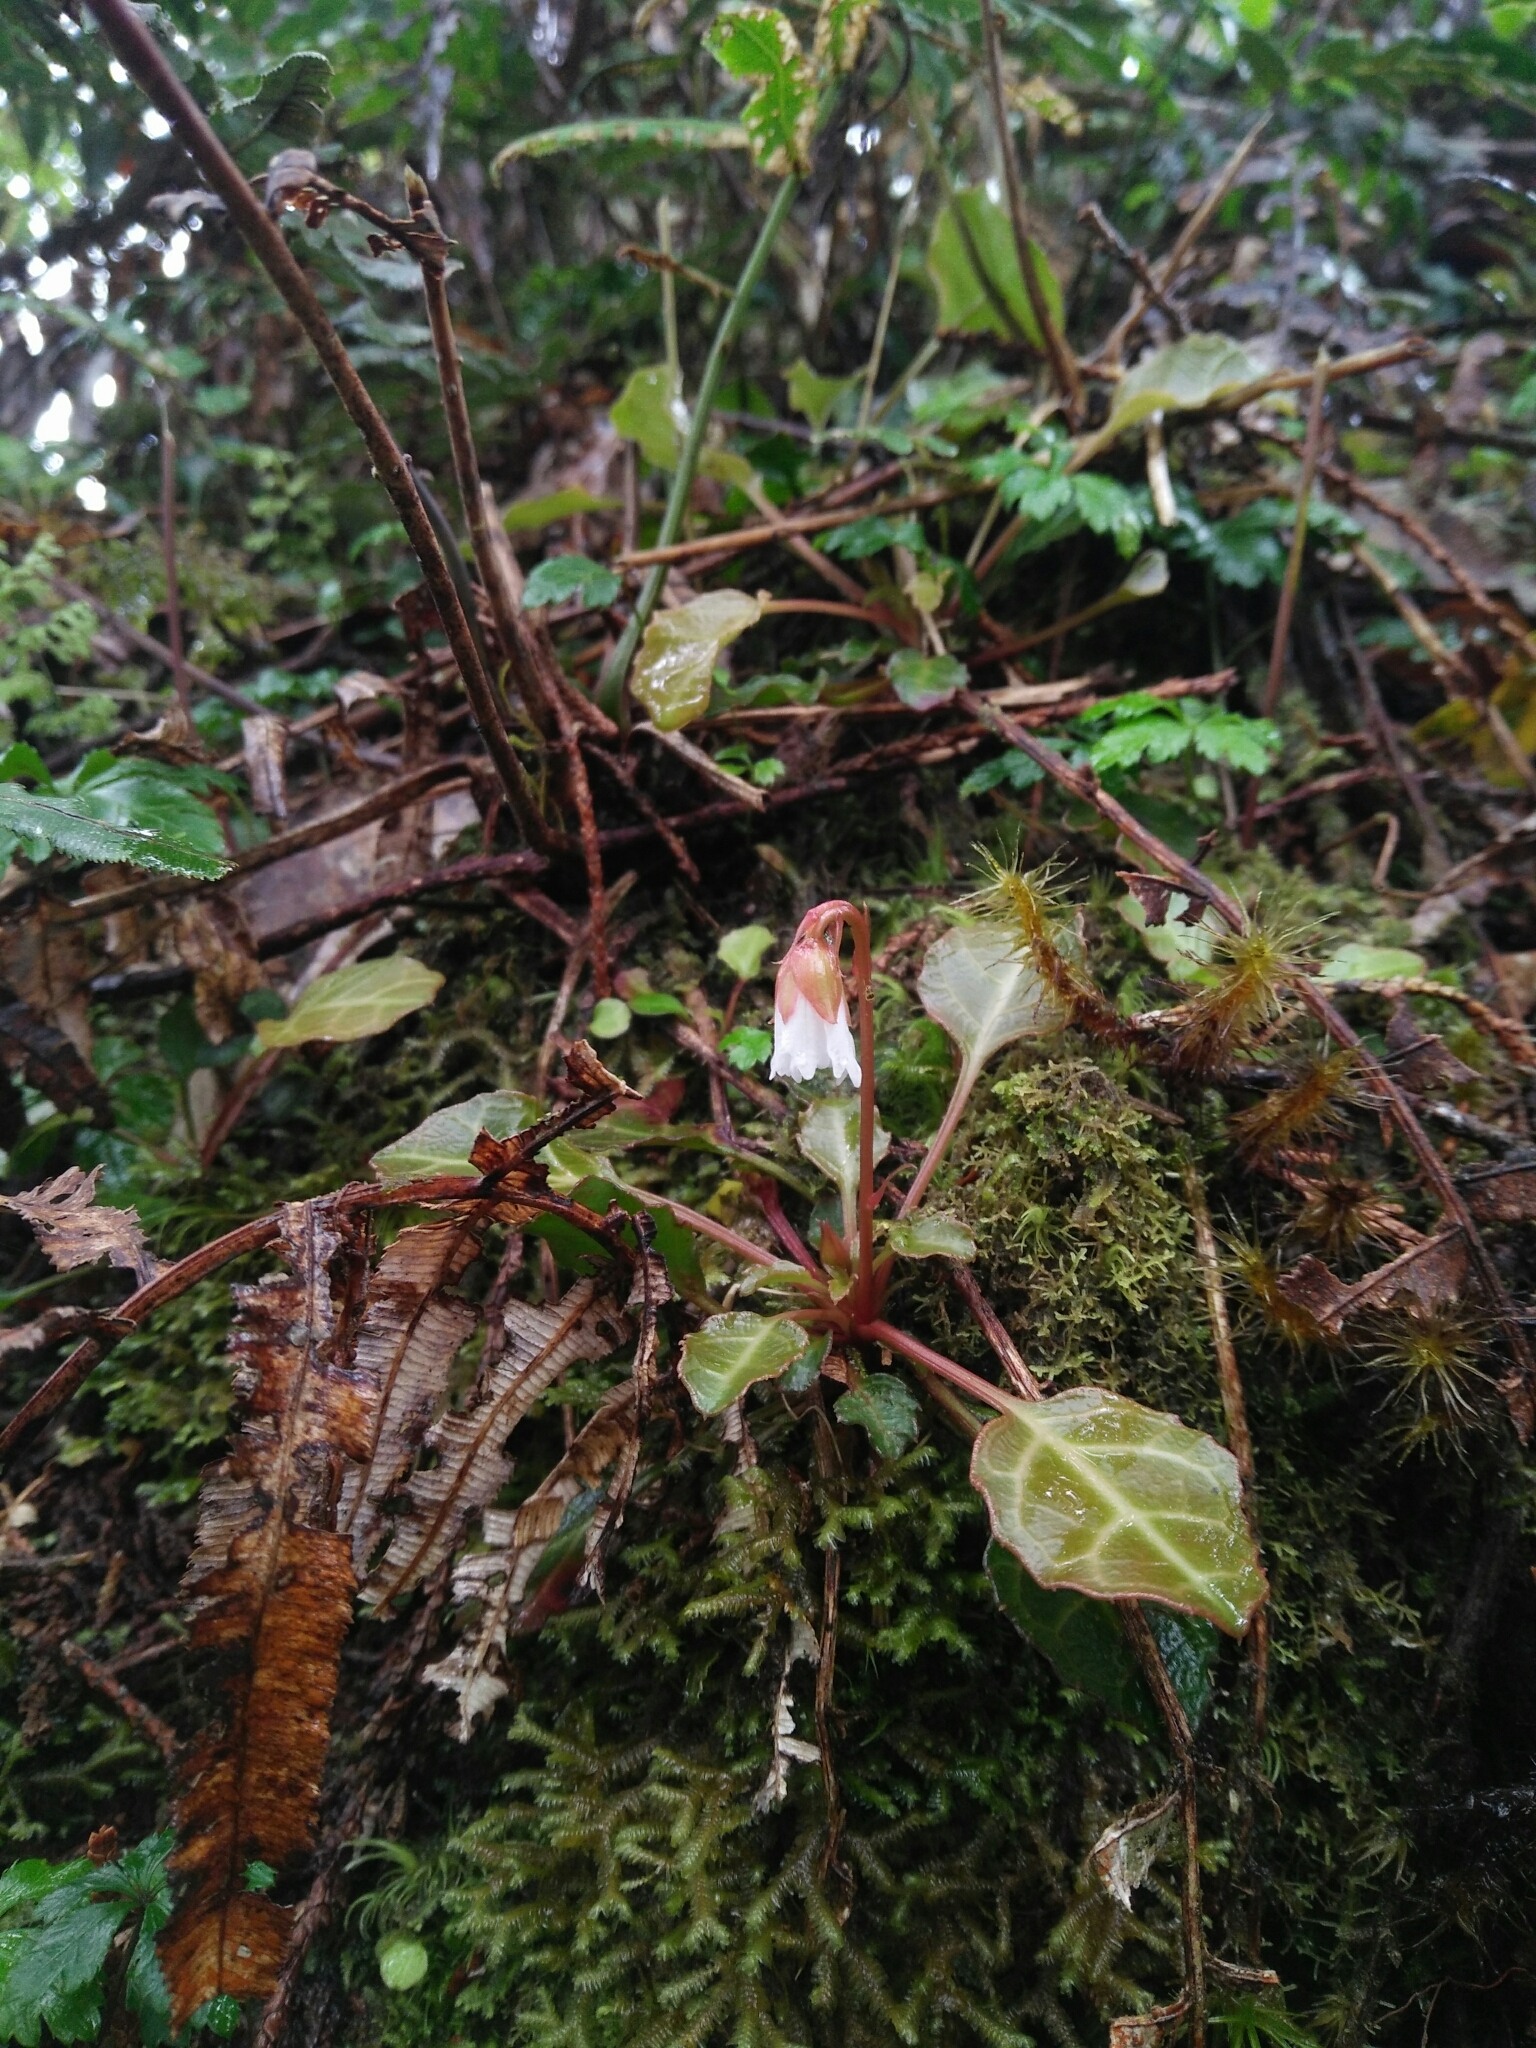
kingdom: Plantae
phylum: Tracheophyta
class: Magnoliopsida
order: Ericales
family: Diapensiaceae
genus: Shortia
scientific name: Shortia rotundifolia
